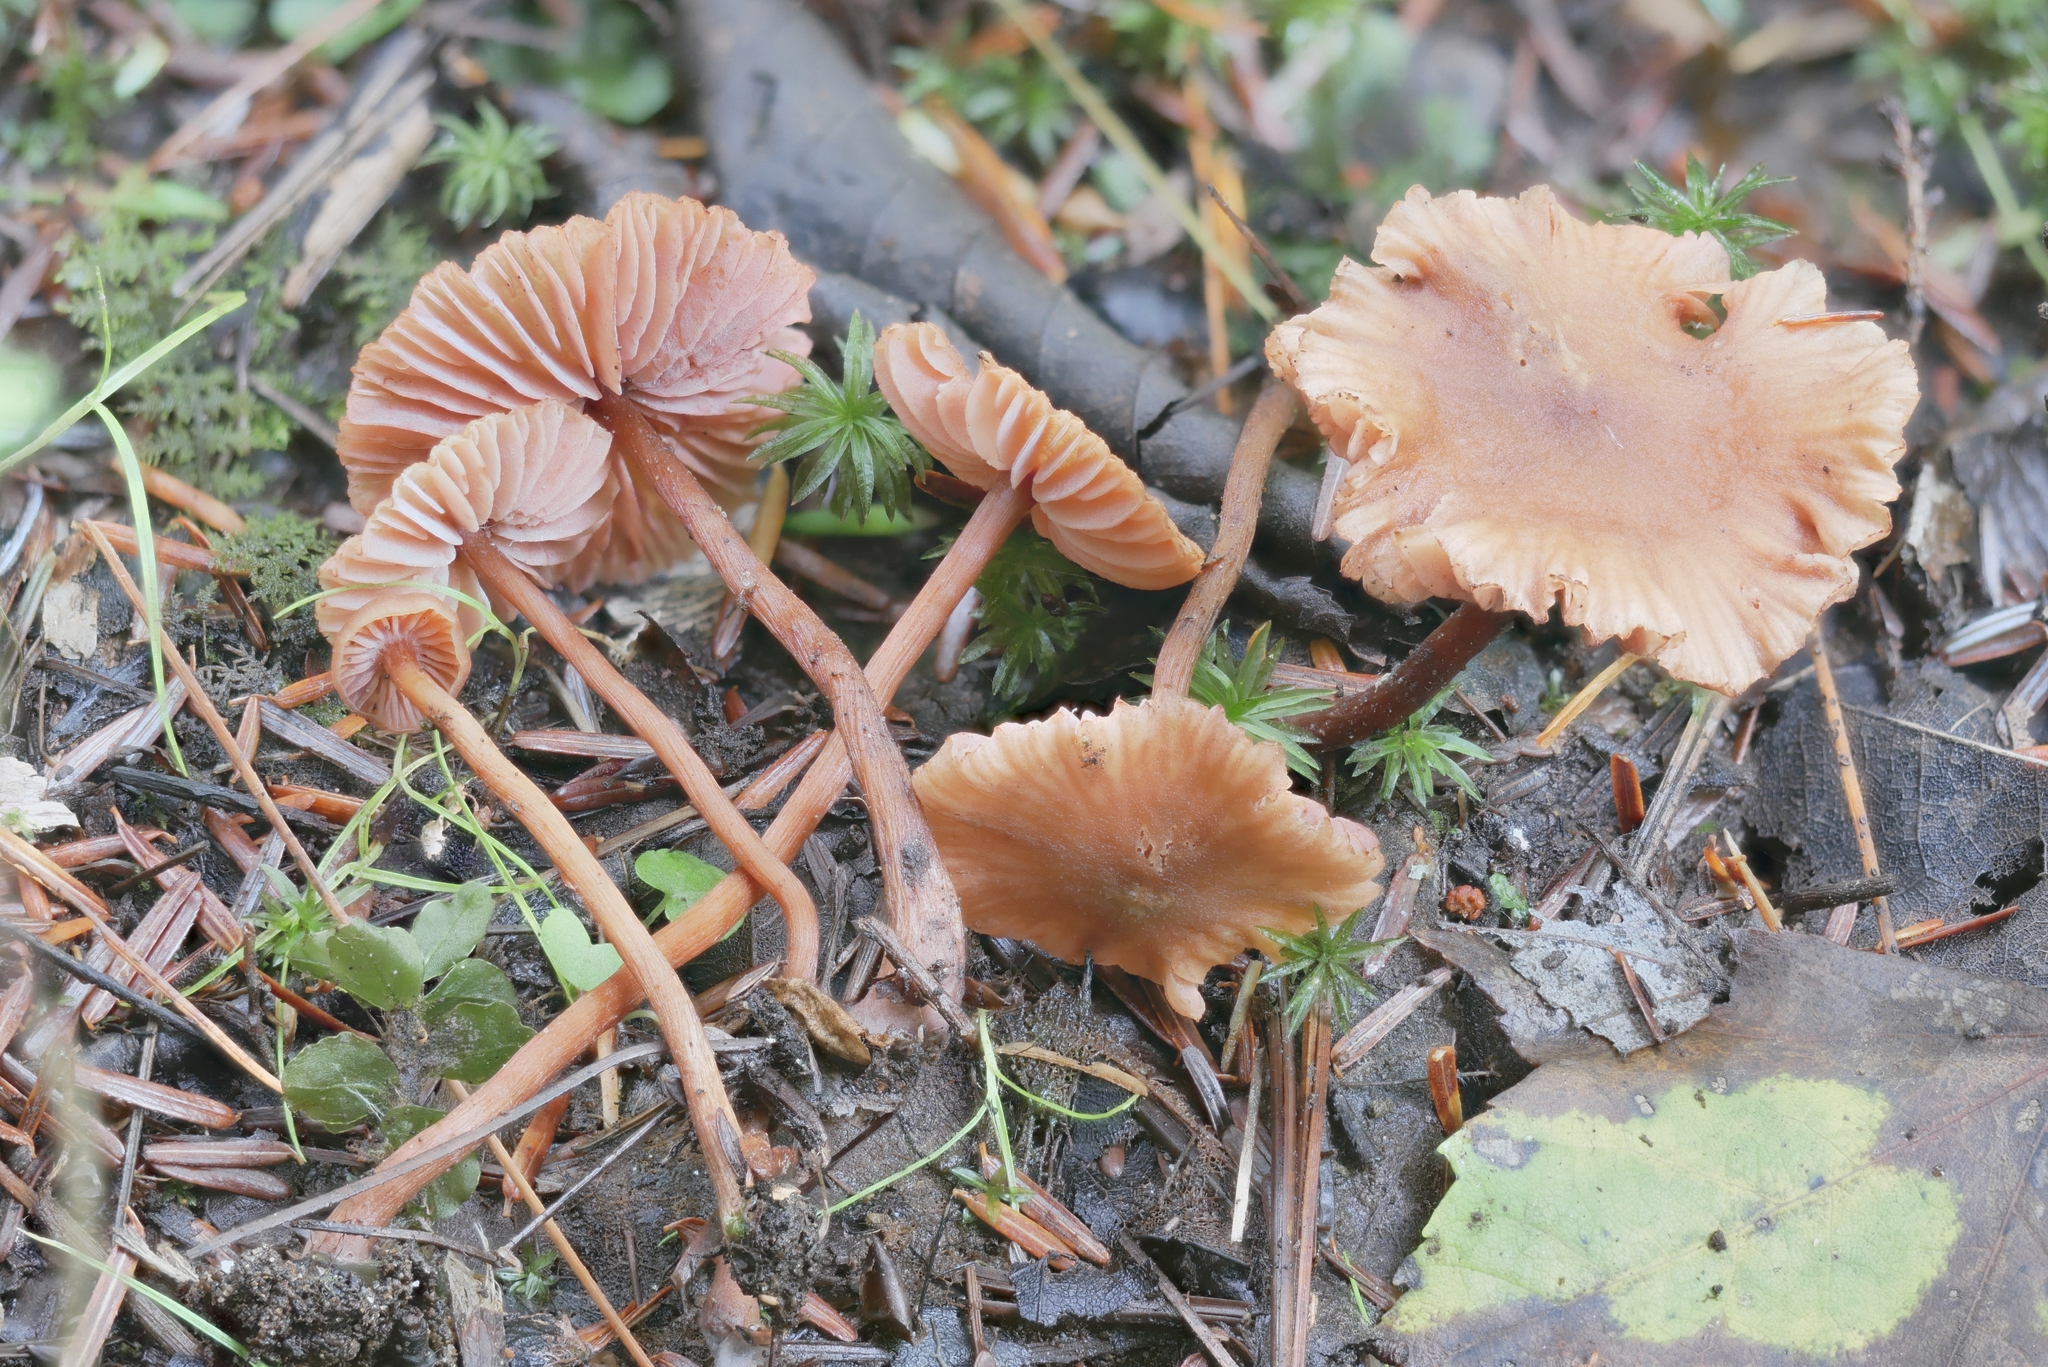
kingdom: Fungi
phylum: Basidiomycota
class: Agaricomycetes
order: Agaricales
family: Hydnangiaceae
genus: Laccaria
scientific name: Laccaria striatula
